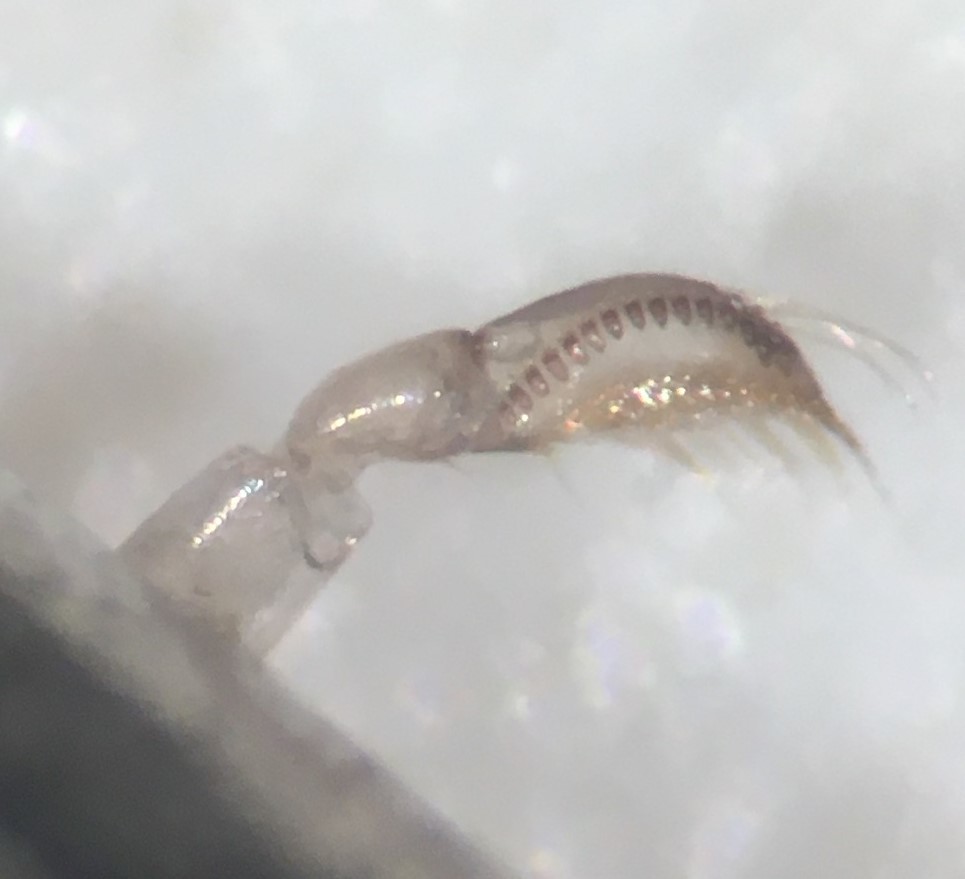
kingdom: Animalia
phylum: Arthropoda
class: Insecta
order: Hemiptera
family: Corixidae
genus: Sigara
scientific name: Sigara bradleyi
